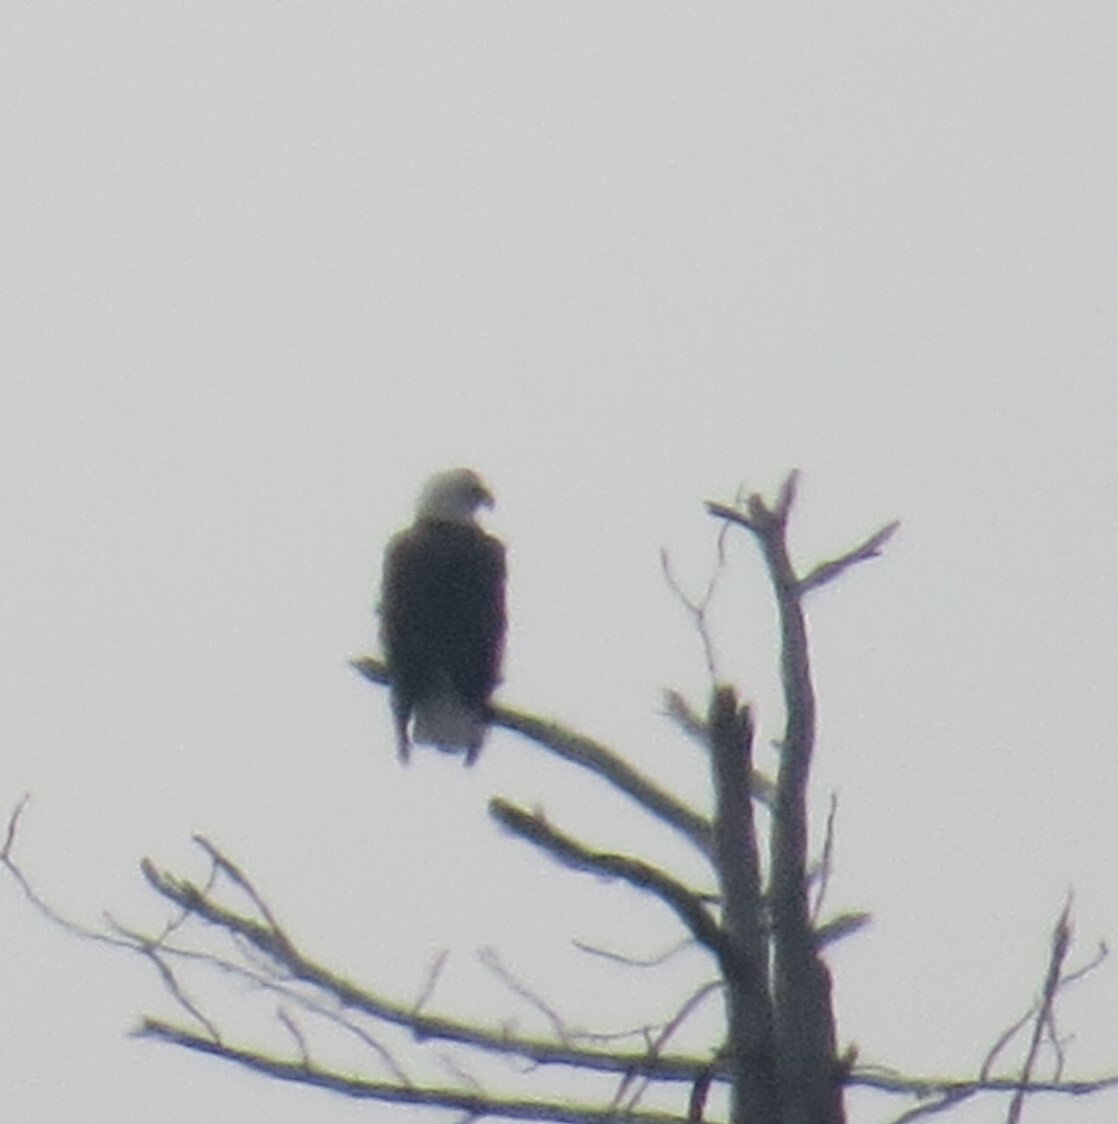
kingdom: Animalia
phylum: Chordata
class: Aves
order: Accipitriformes
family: Accipitridae
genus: Haliaeetus
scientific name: Haliaeetus leucocephalus
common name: Bald eagle
